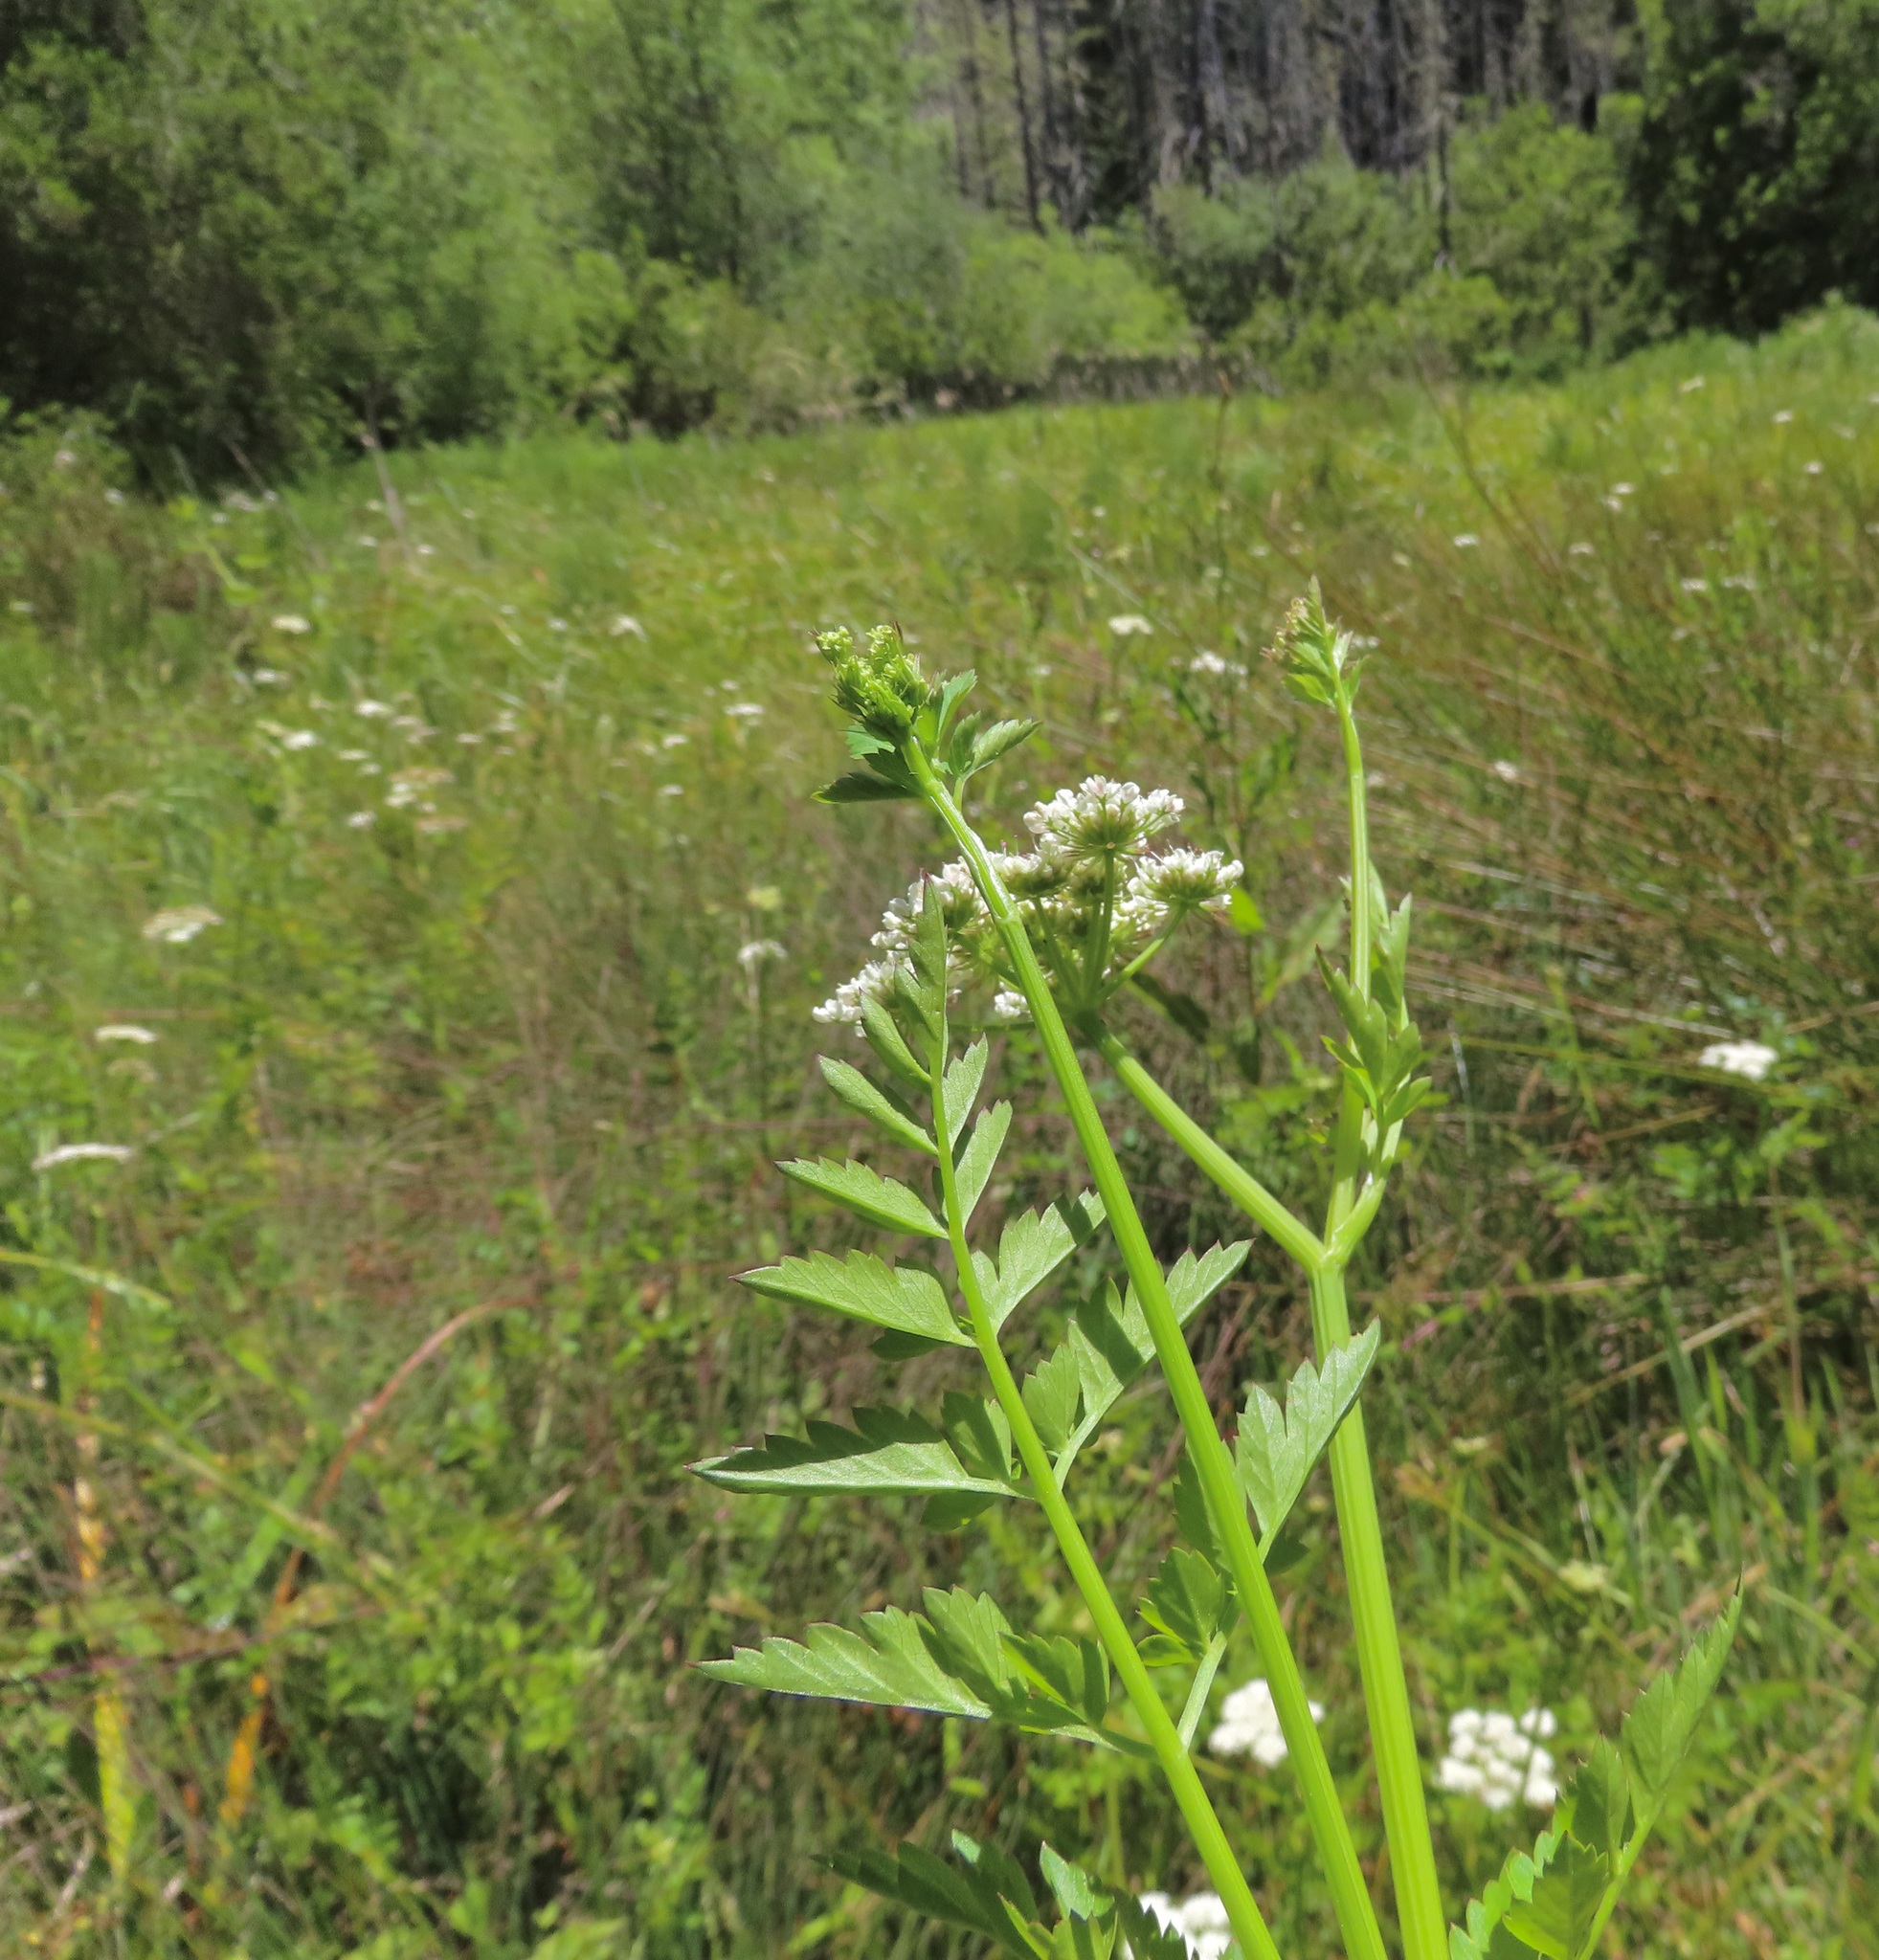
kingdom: Plantae
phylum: Tracheophyta
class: Magnoliopsida
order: Apiales
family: Apiaceae
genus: Oenanthe
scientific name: Oenanthe sarmentosa
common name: American water-parsley
